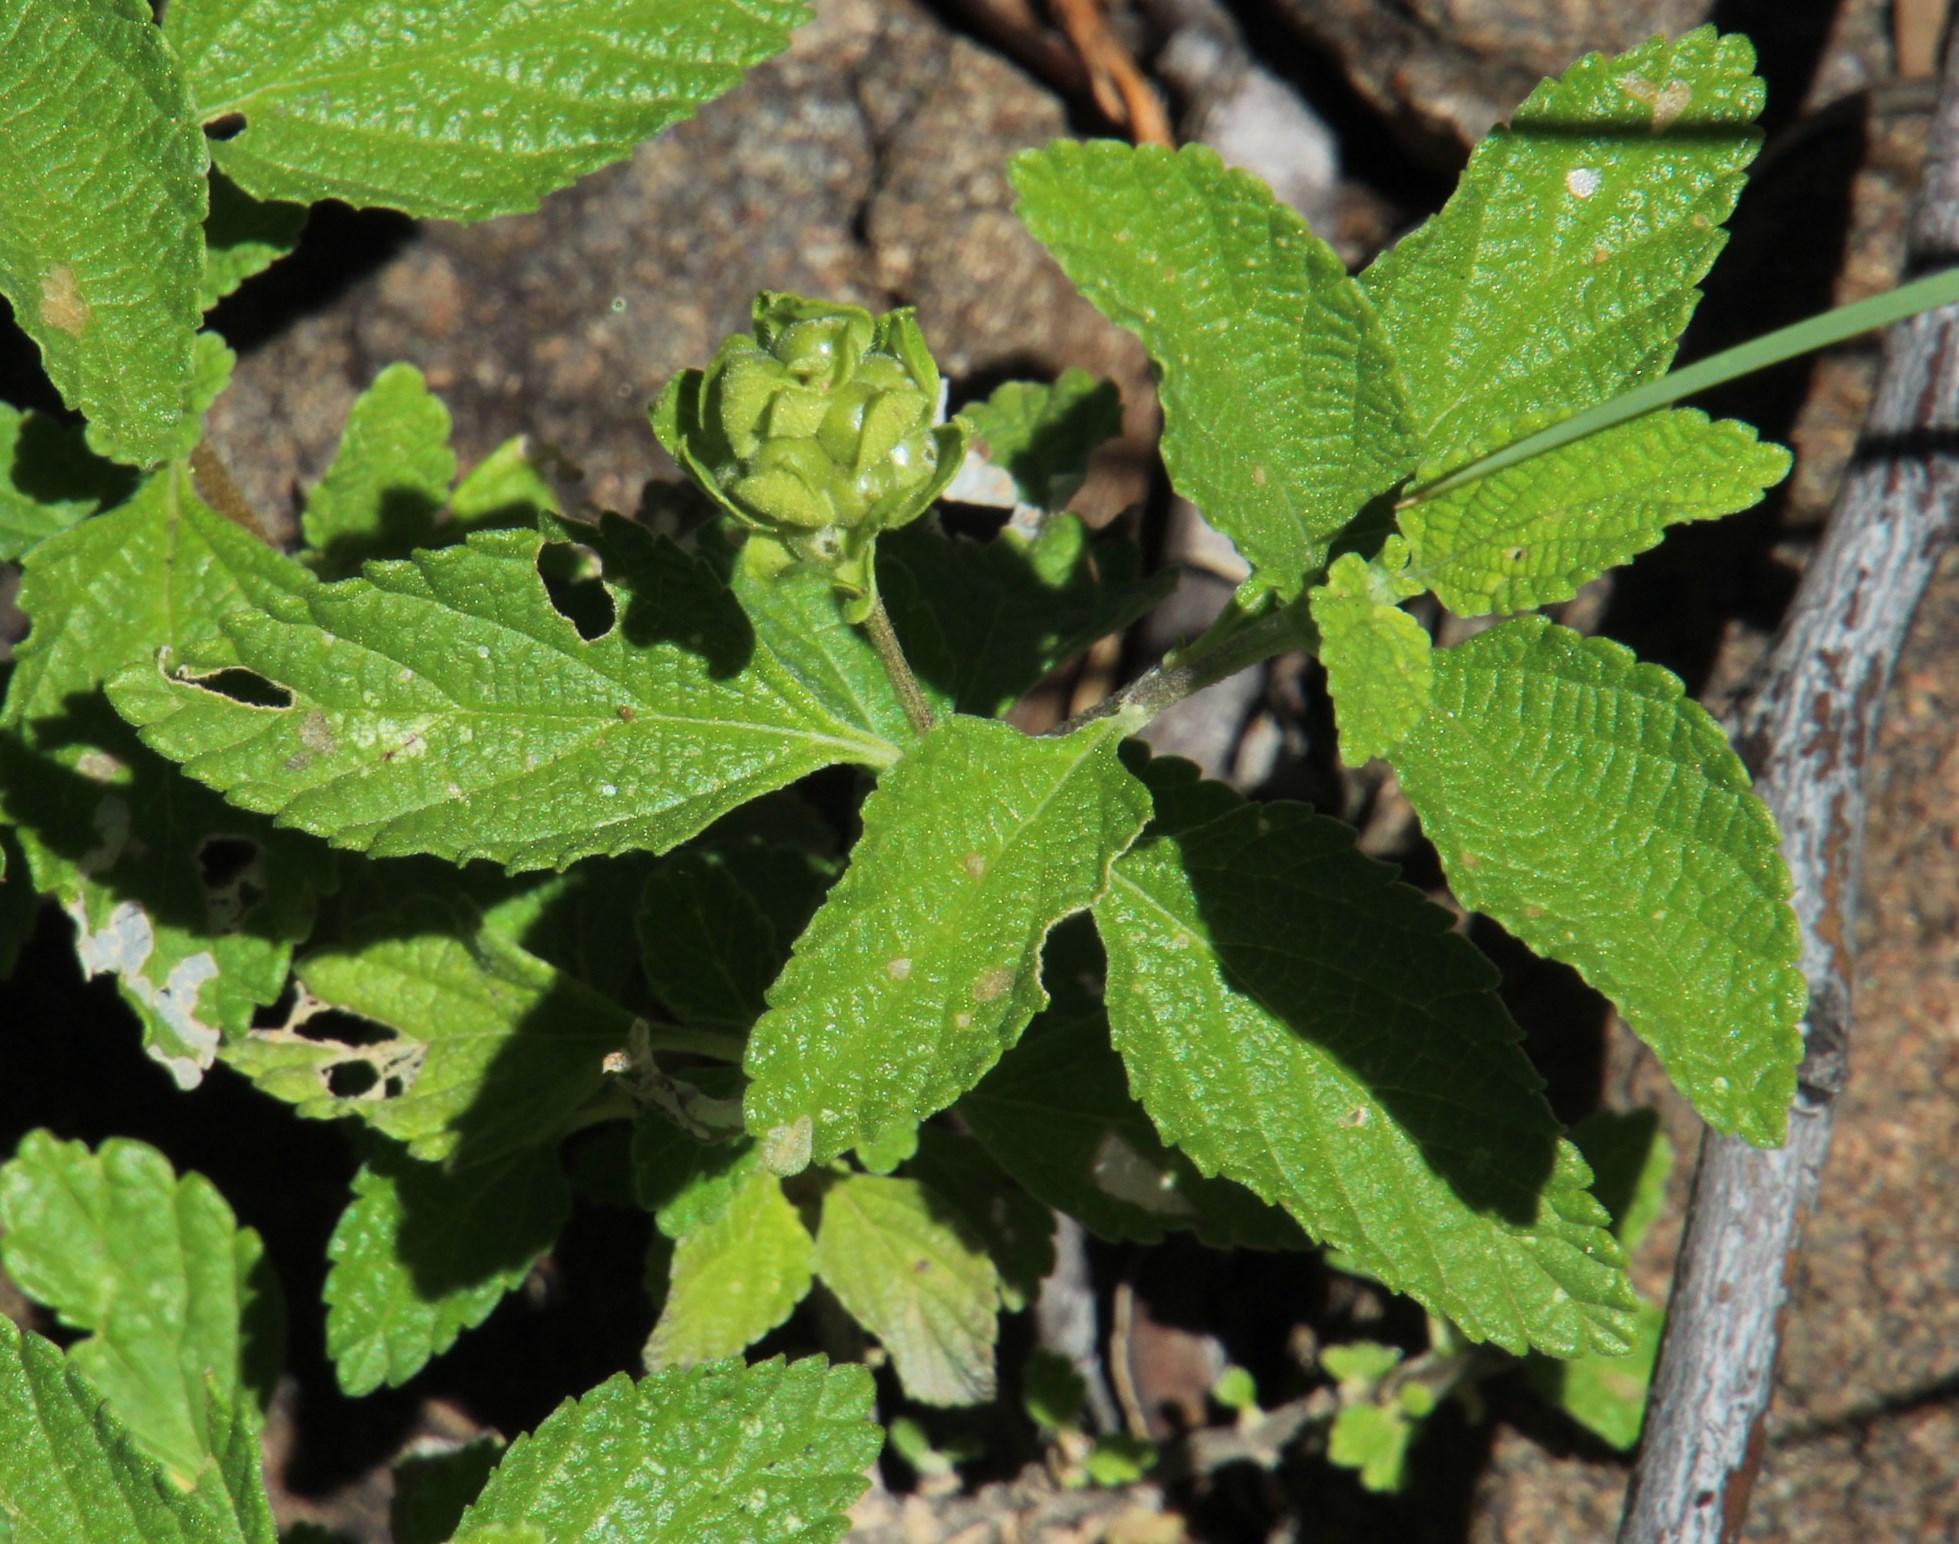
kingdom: Plantae
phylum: Tracheophyta
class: Magnoliopsida
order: Lamiales
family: Verbenaceae
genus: Lantana
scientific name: Lantana rugosa
